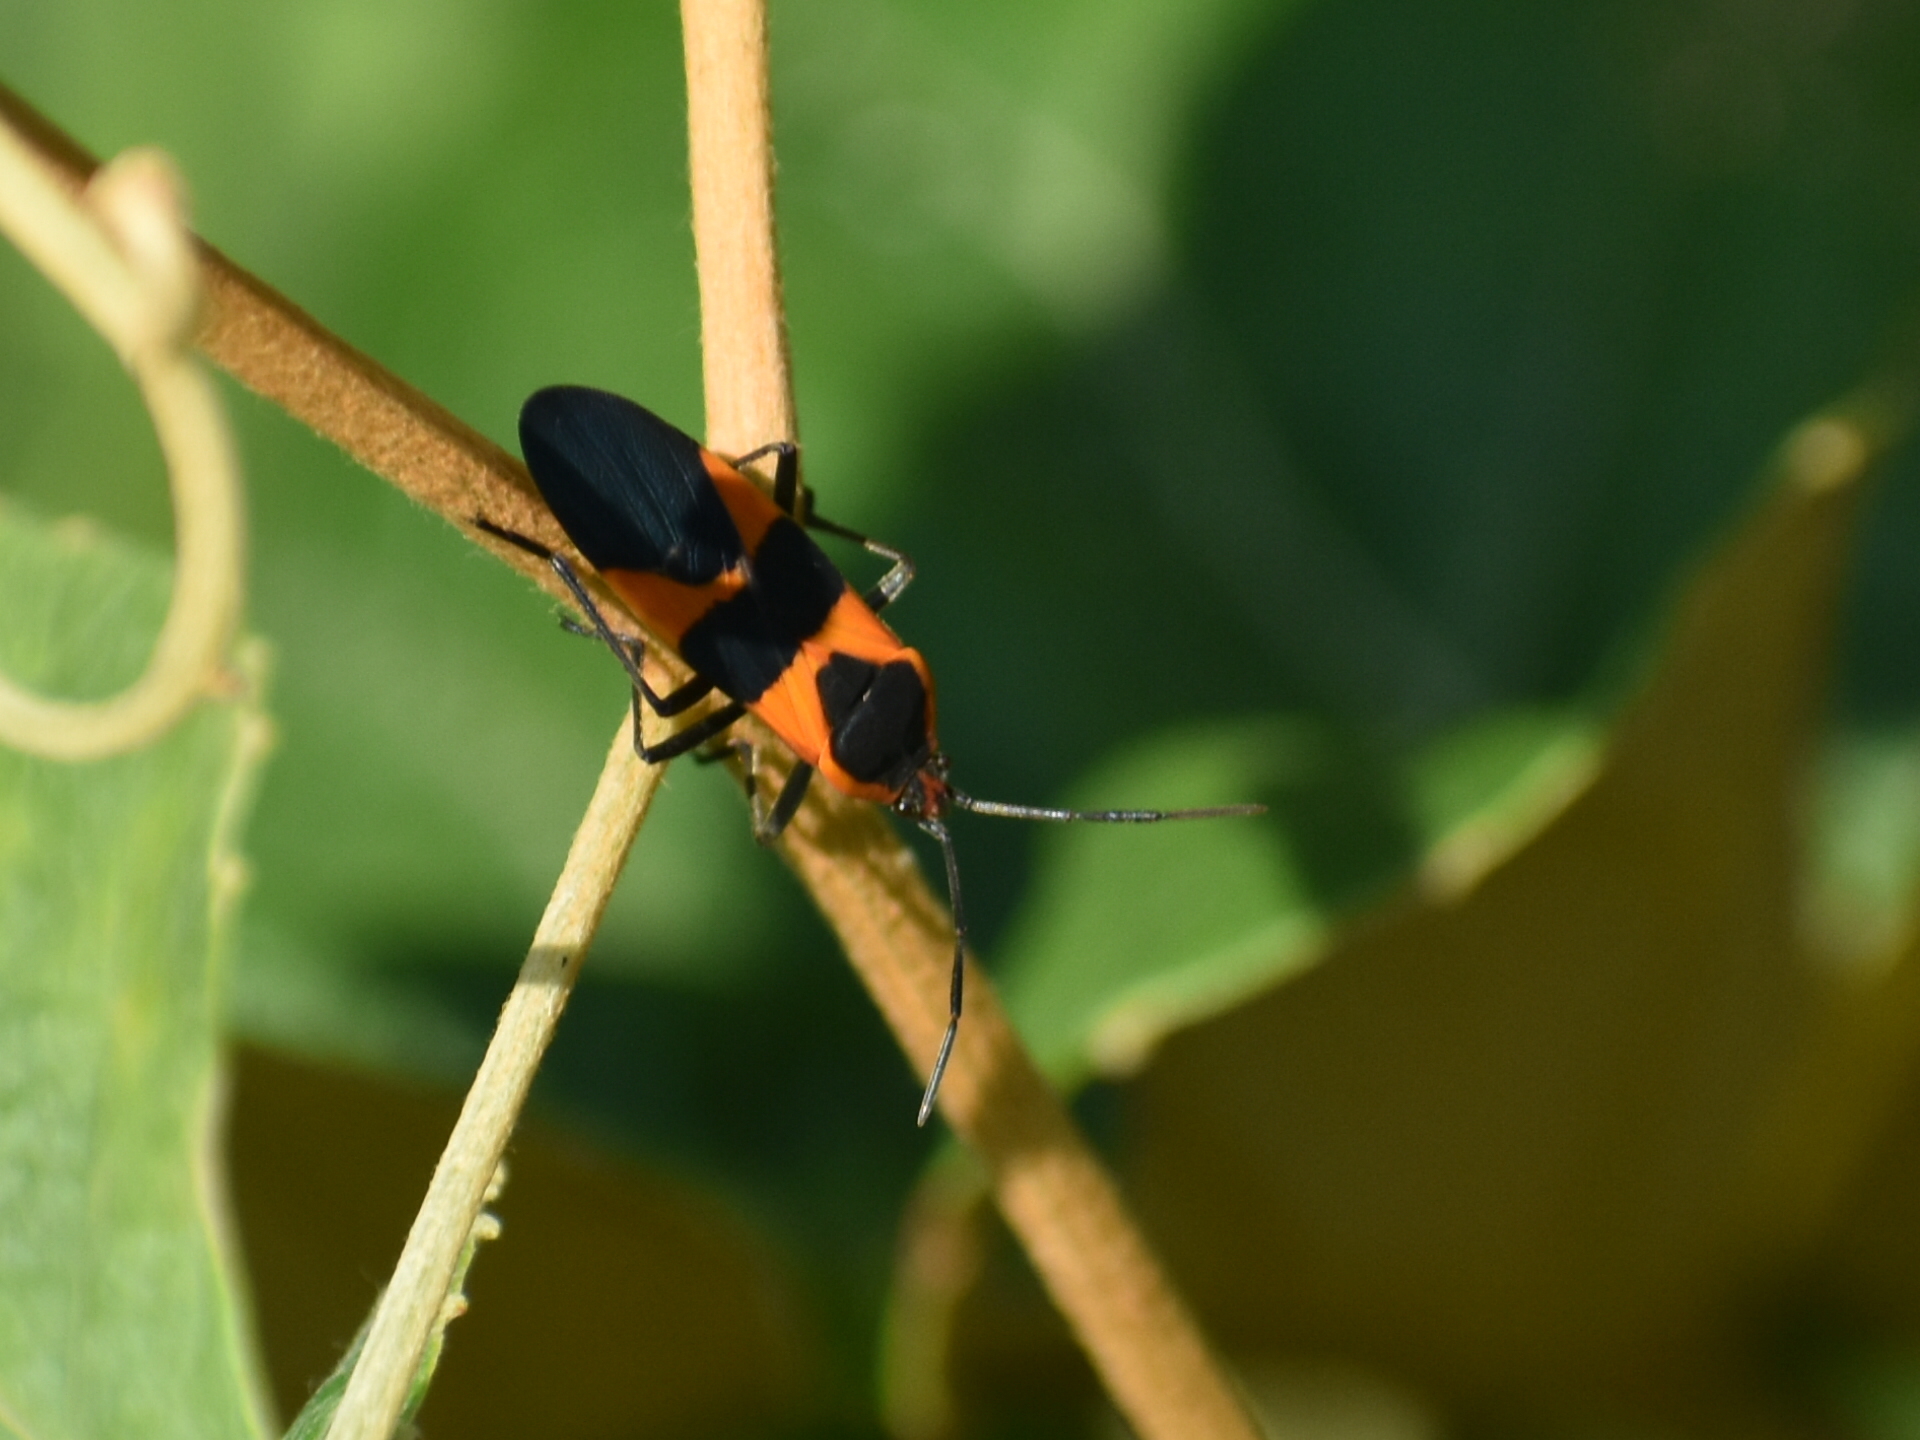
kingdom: Animalia
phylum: Arthropoda
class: Insecta
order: Hemiptera
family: Lygaeidae
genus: Oncopeltus
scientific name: Oncopeltus fasciatus
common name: Large milkweed bug
